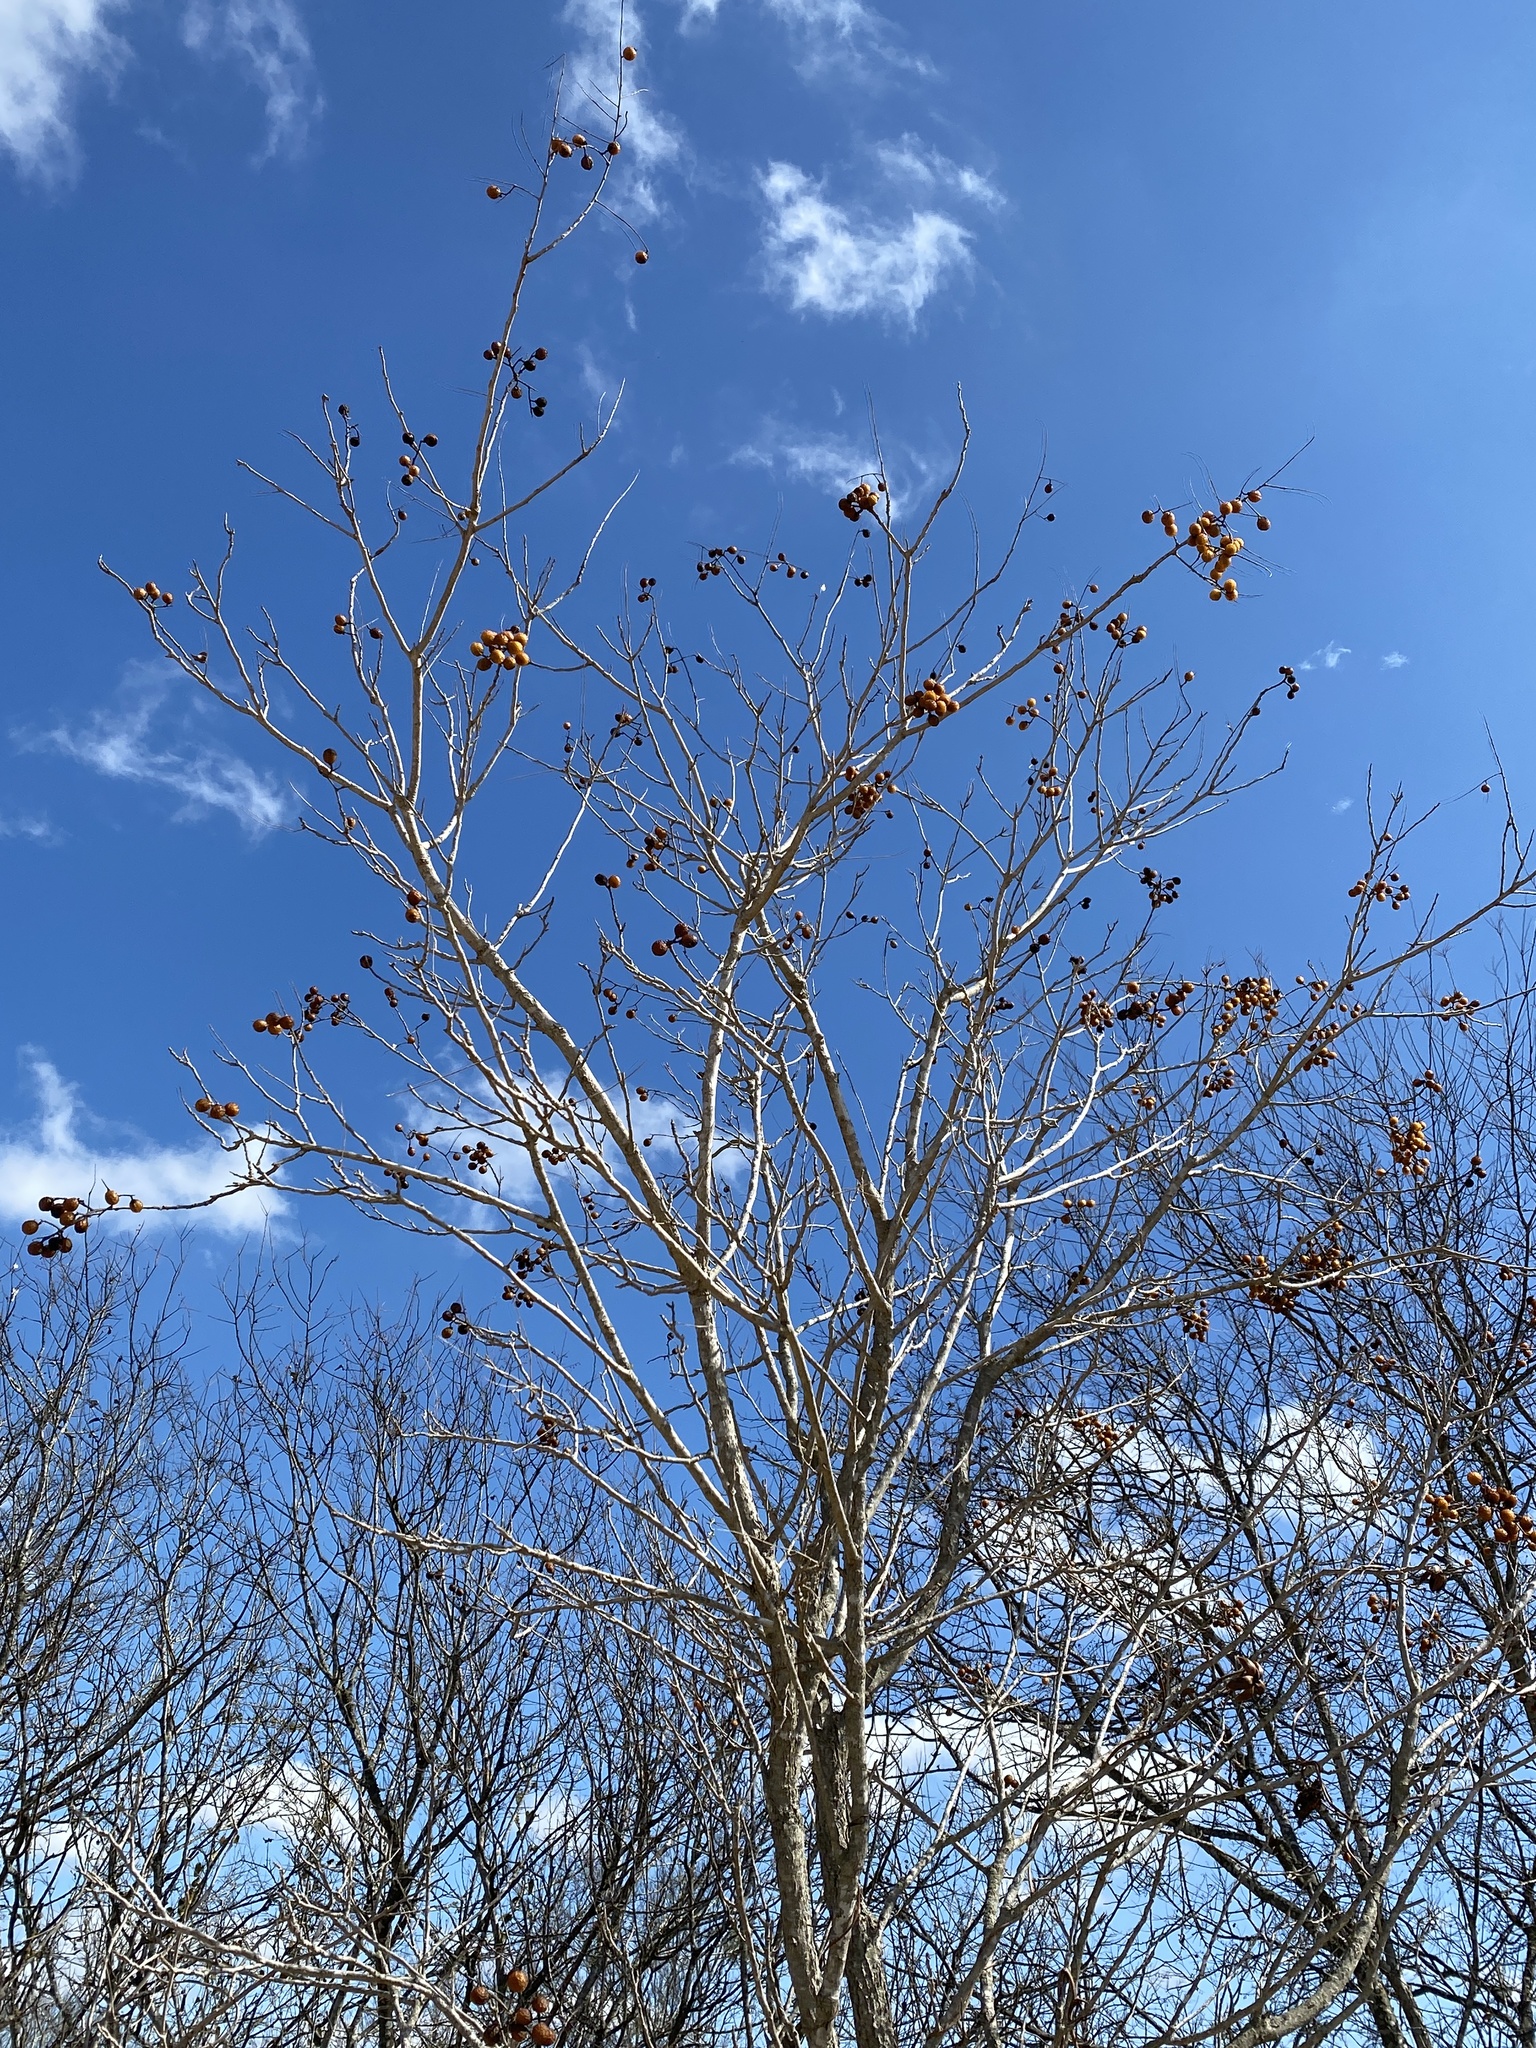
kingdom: Plantae
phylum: Tracheophyta
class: Magnoliopsida
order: Sapindales
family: Meliaceae
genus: Melia
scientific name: Melia azedarach
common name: Chinaberrytree
